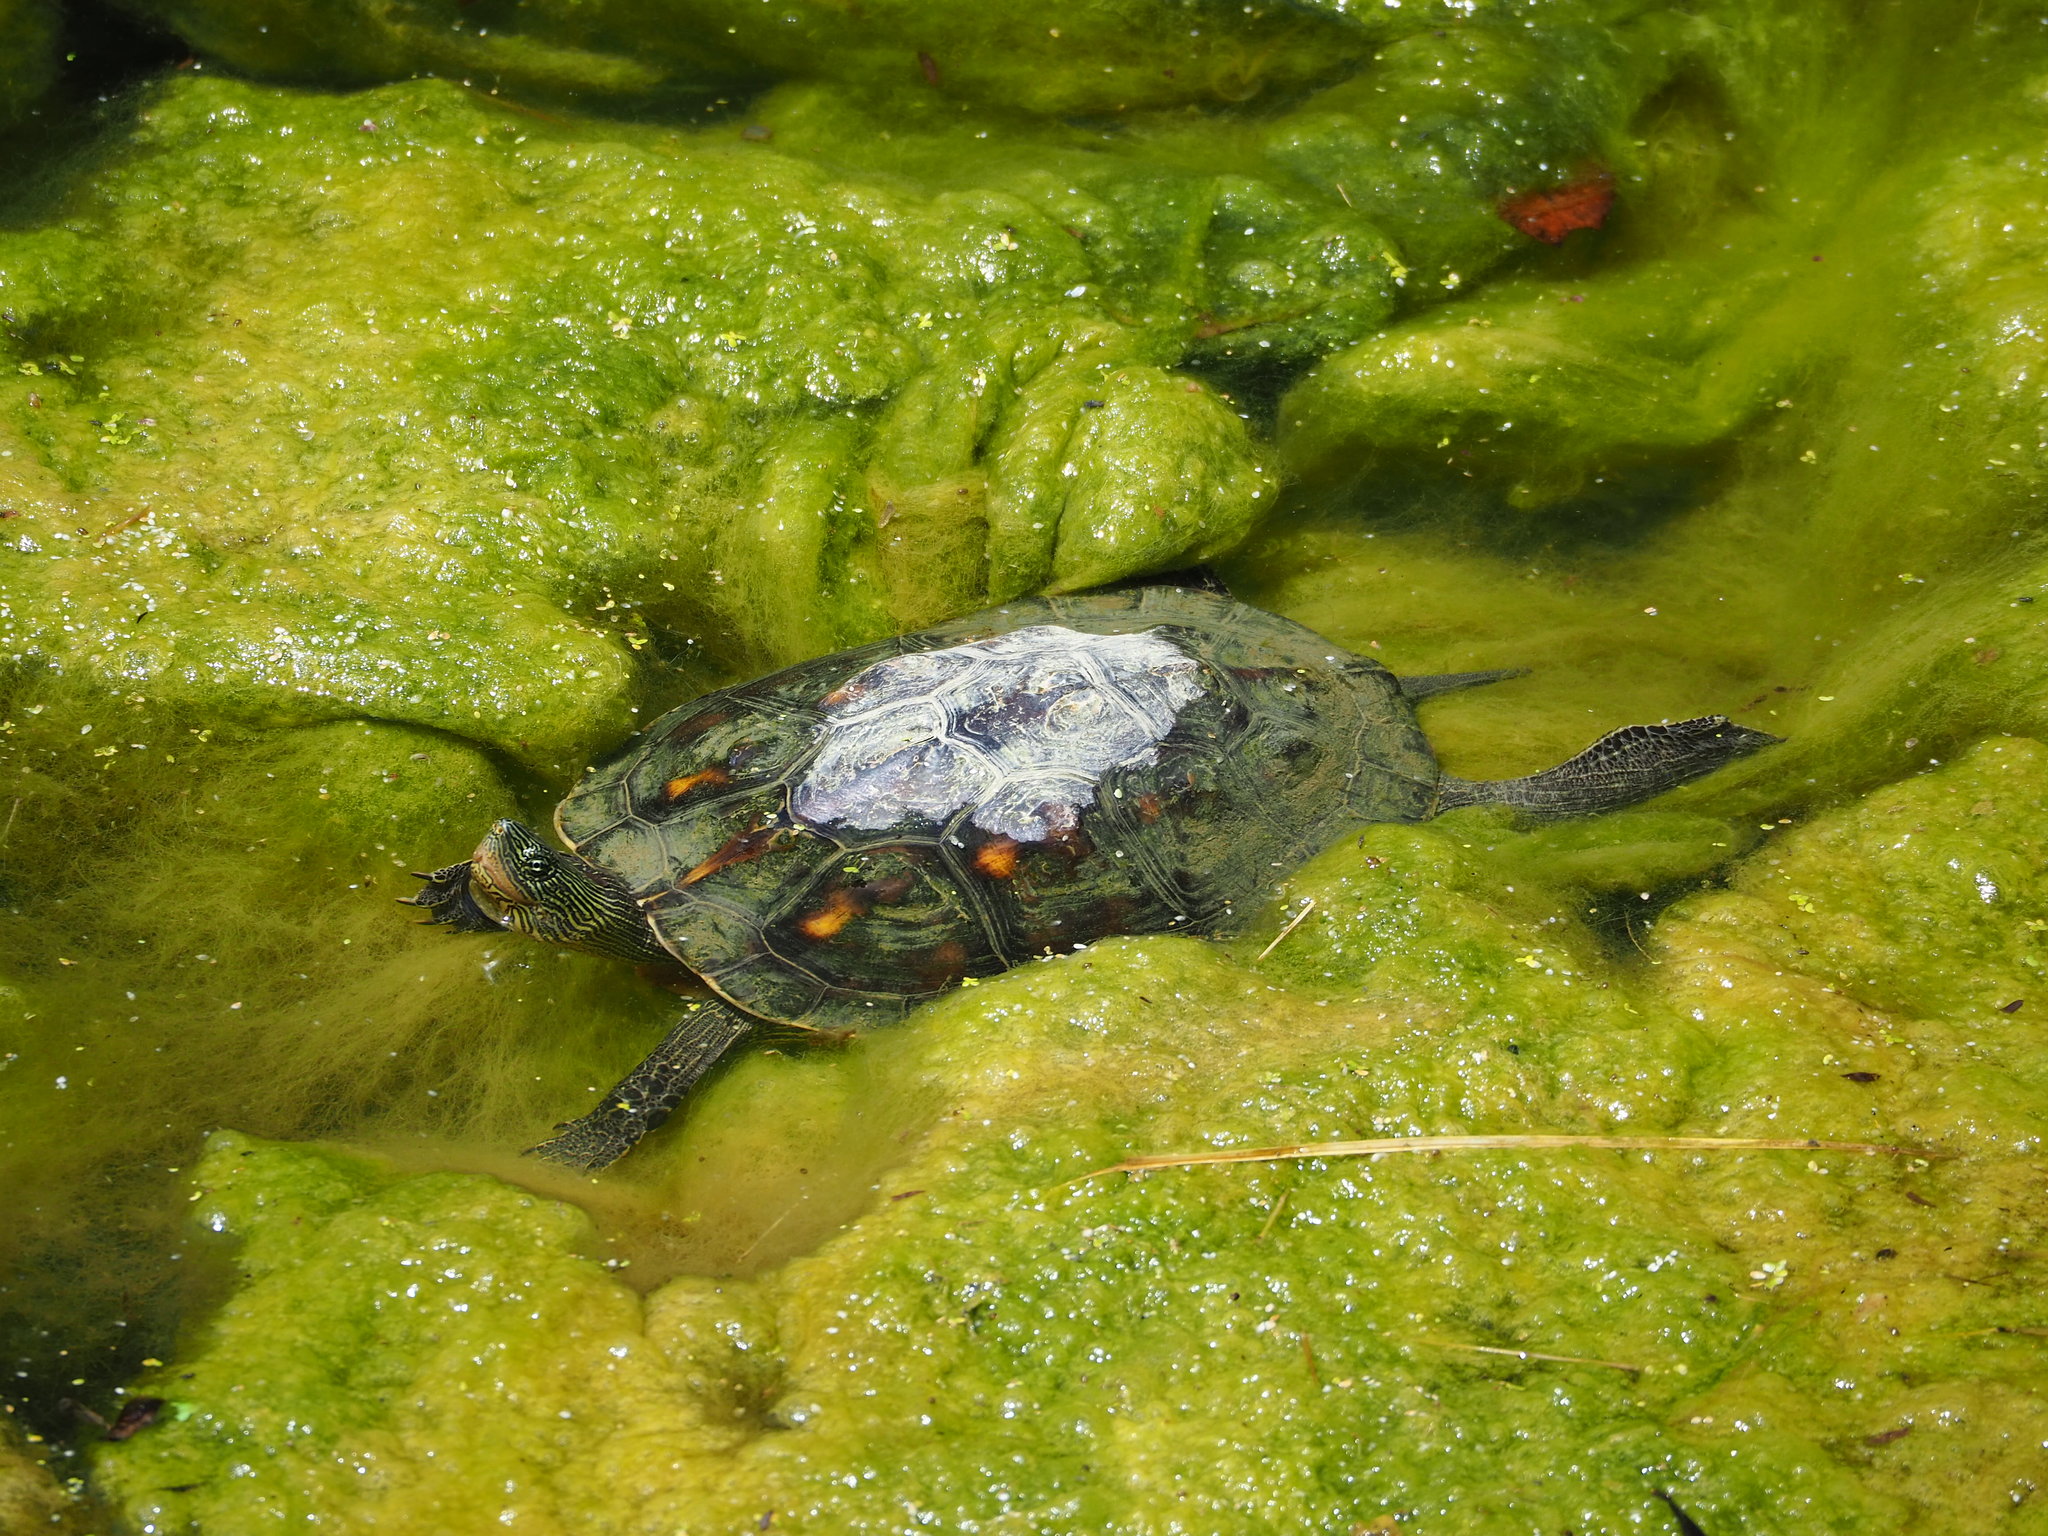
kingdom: Animalia
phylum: Chordata
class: Testudines
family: Geoemydidae
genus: Mauremys
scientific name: Mauremys sinensis
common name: Chinese stripe-necked turtle
